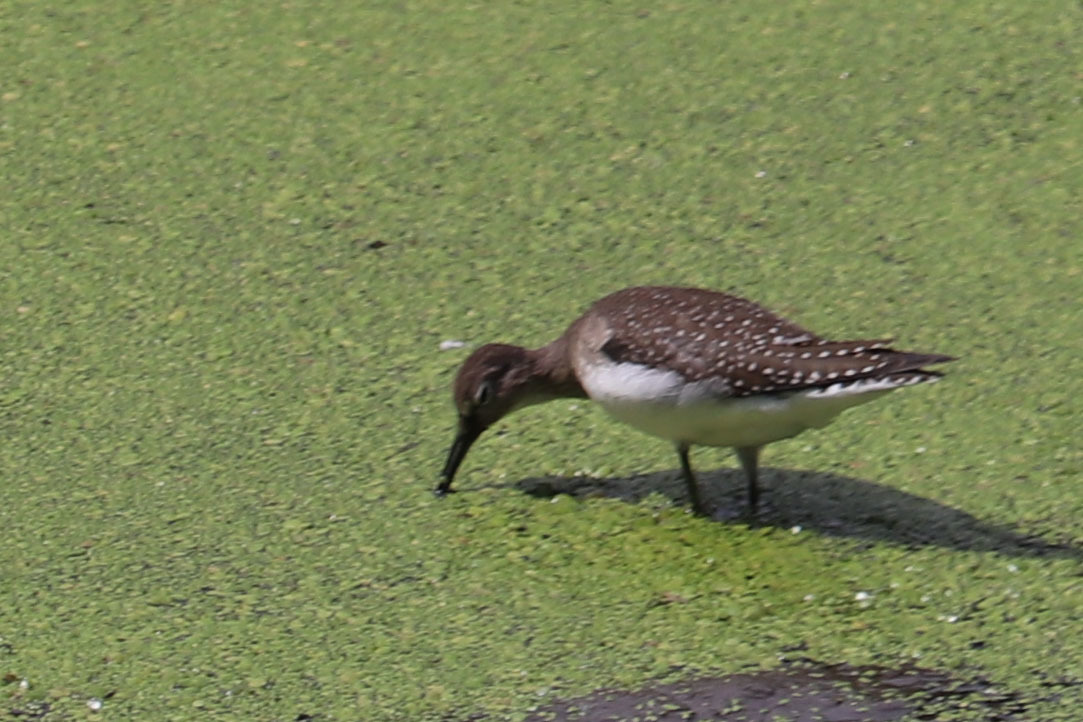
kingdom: Animalia
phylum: Chordata
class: Aves
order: Charadriiformes
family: Scolopacidae
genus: Tringa
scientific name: Tringa solitaria
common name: Solitary sandpiper
